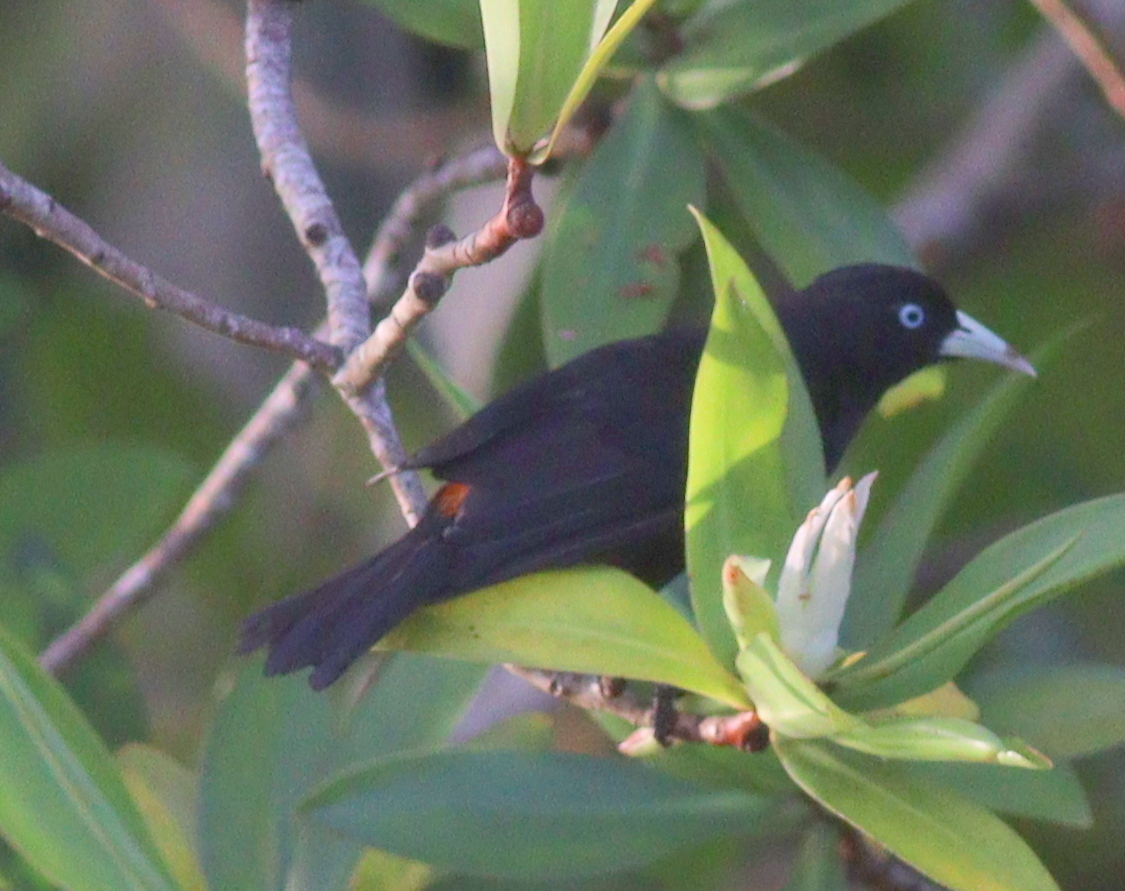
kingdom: Animalia
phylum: Chordata
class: Aves
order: Passeriformes
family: Icteridae
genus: Cacicus
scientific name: Cacicus uropygialis
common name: Scarlet-rumped cacique
